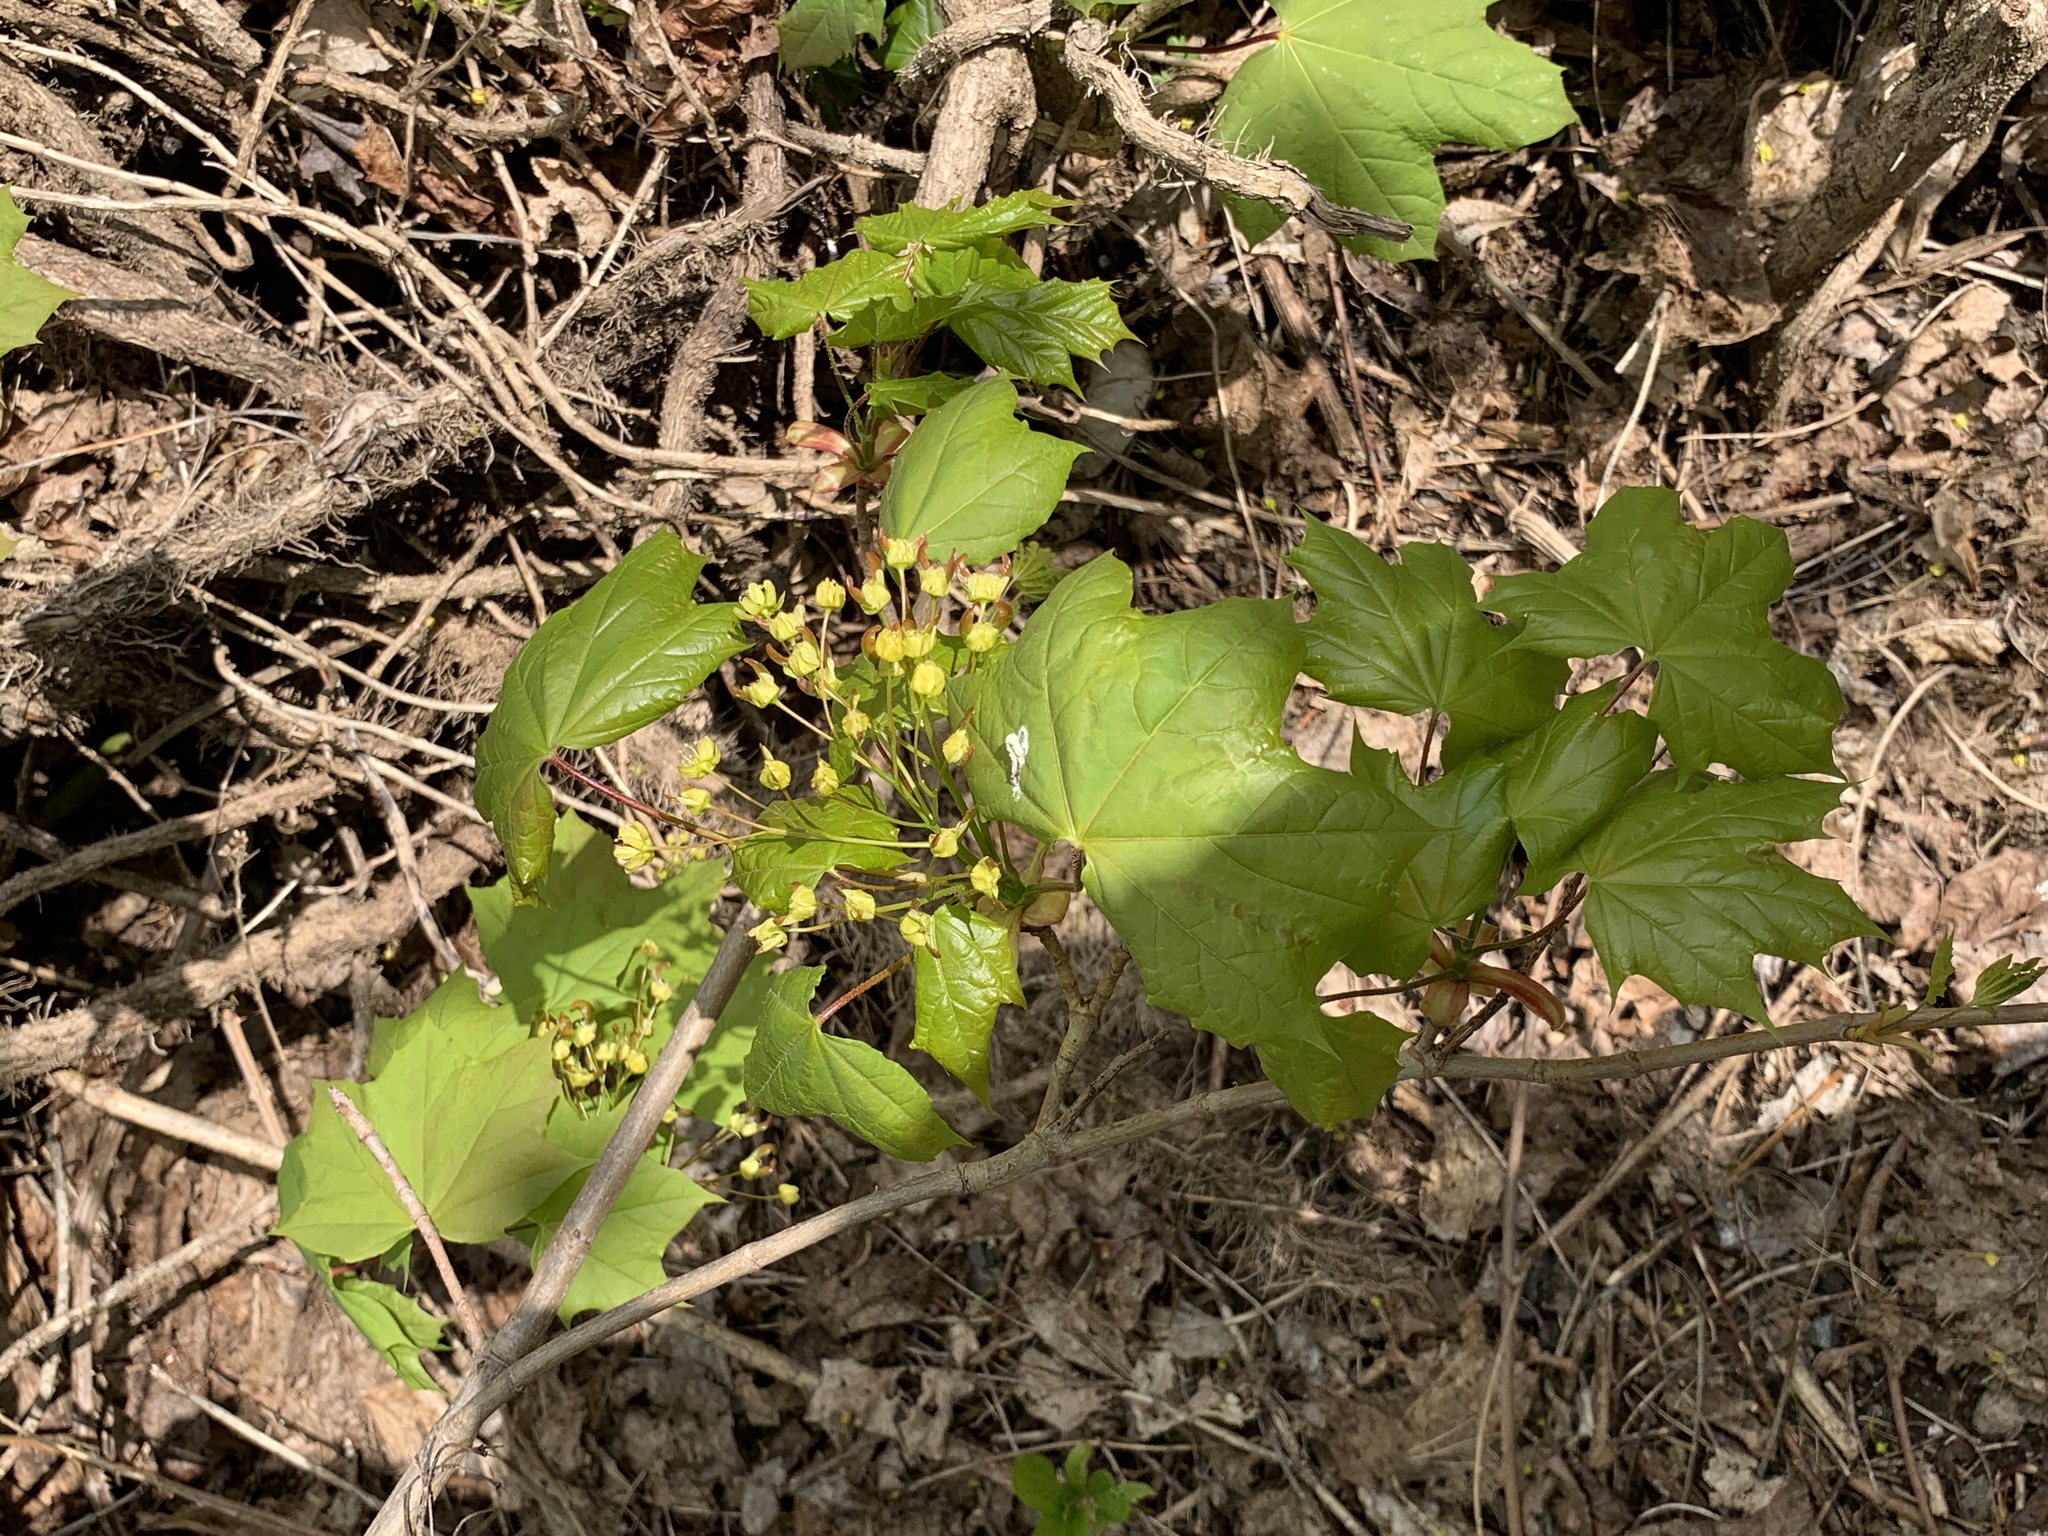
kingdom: Plantae
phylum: Tracheophyta
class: Magnoliopsida
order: Sapindales
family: Sapindaceae
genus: Acer
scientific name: Acer platanoides
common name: Norway maple
